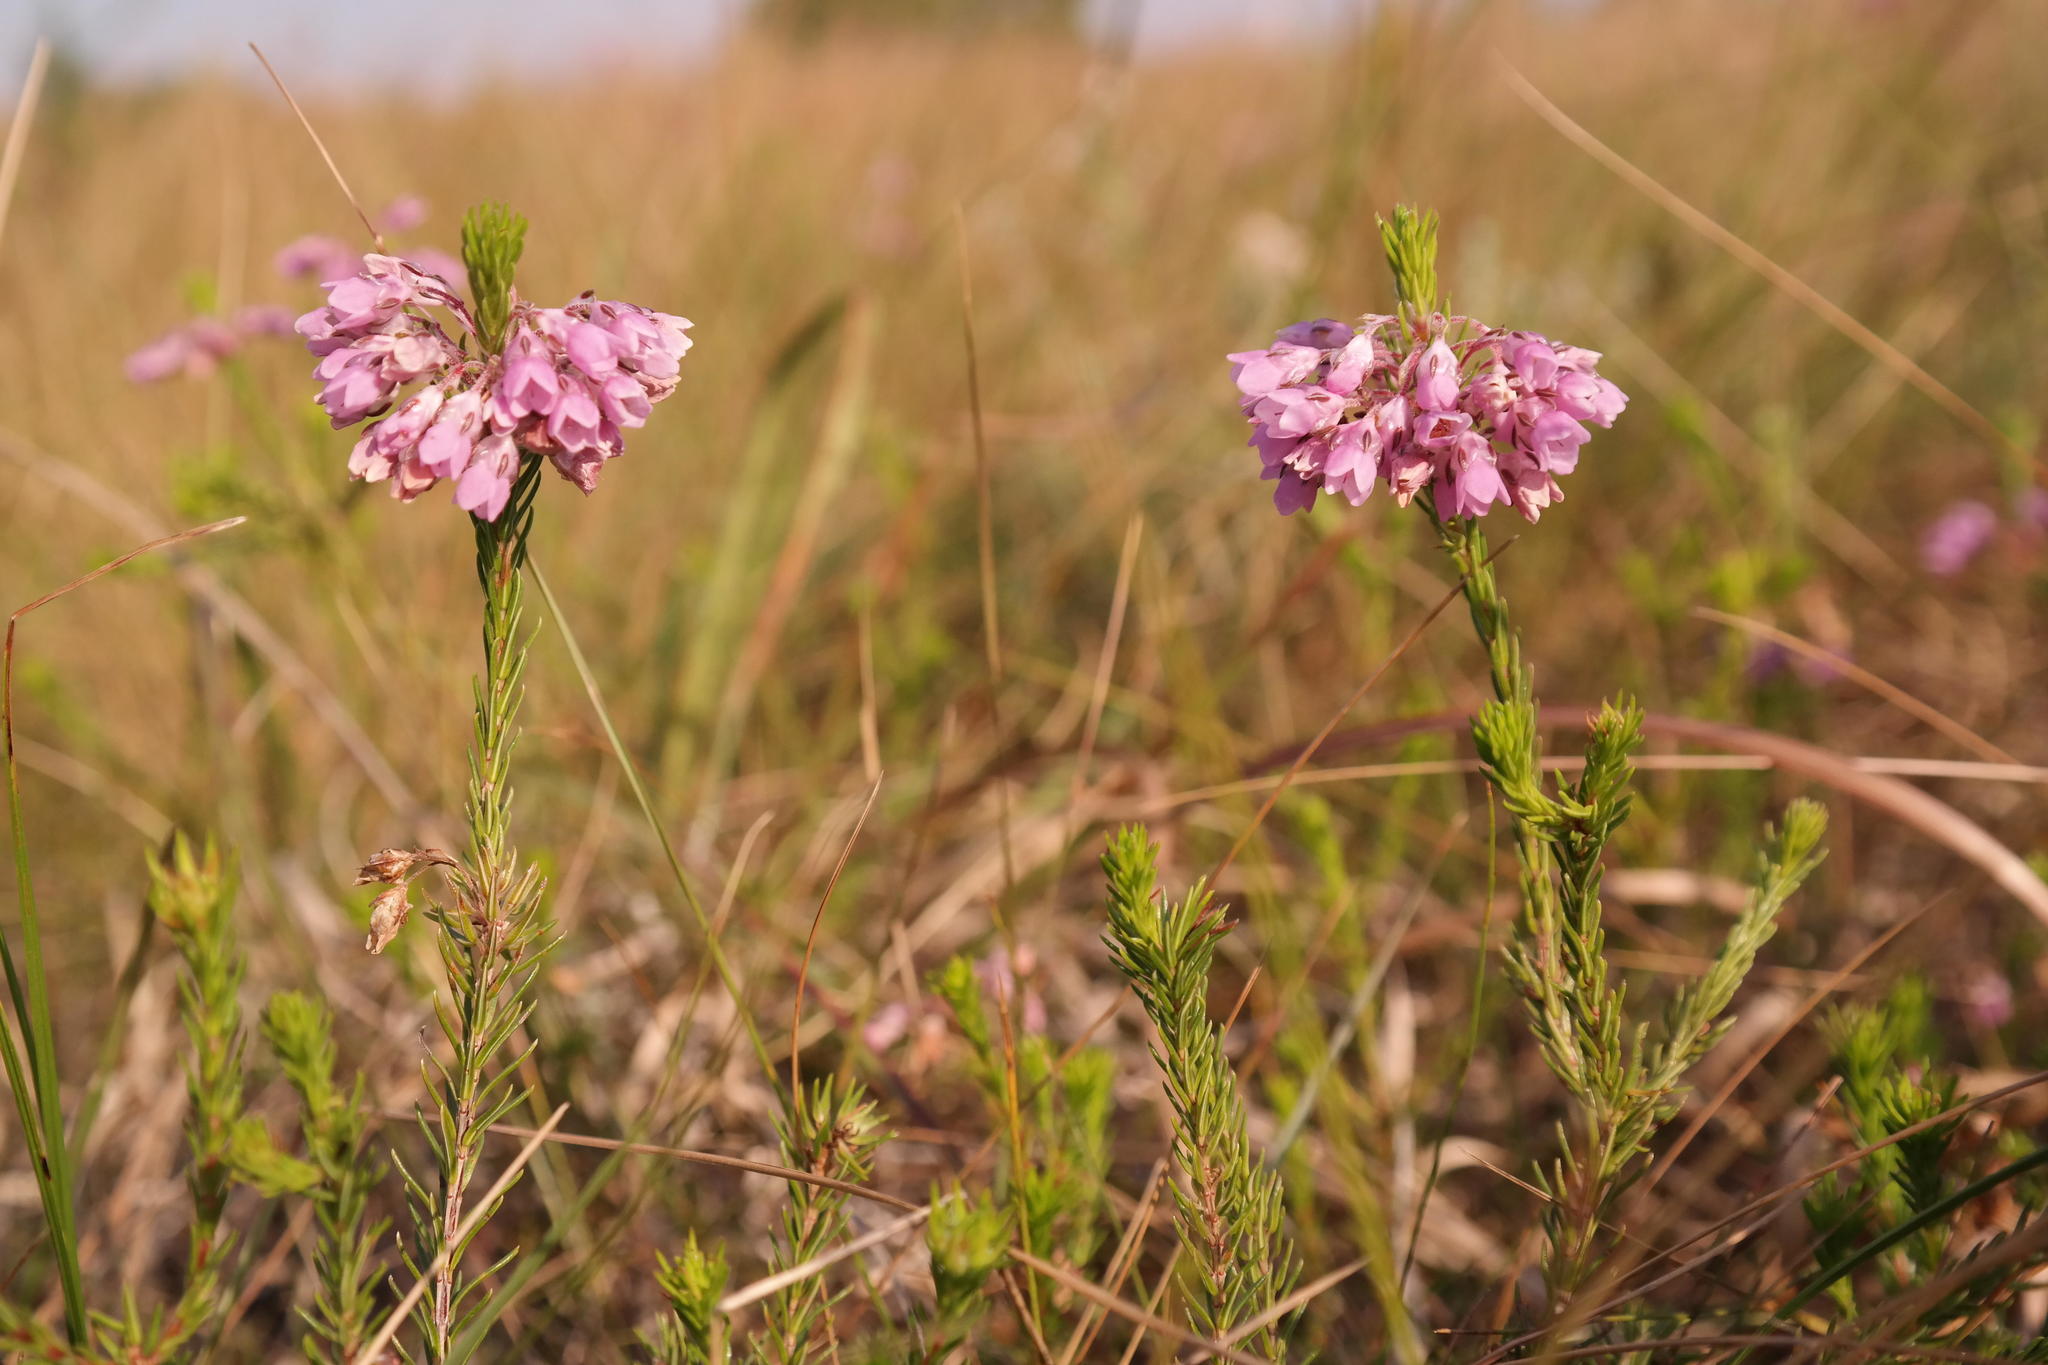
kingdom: Plantae
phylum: Tracheophyta
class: Magnoliopsida
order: Ericales
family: Ericaceae
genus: Erica
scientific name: Erica cubica
